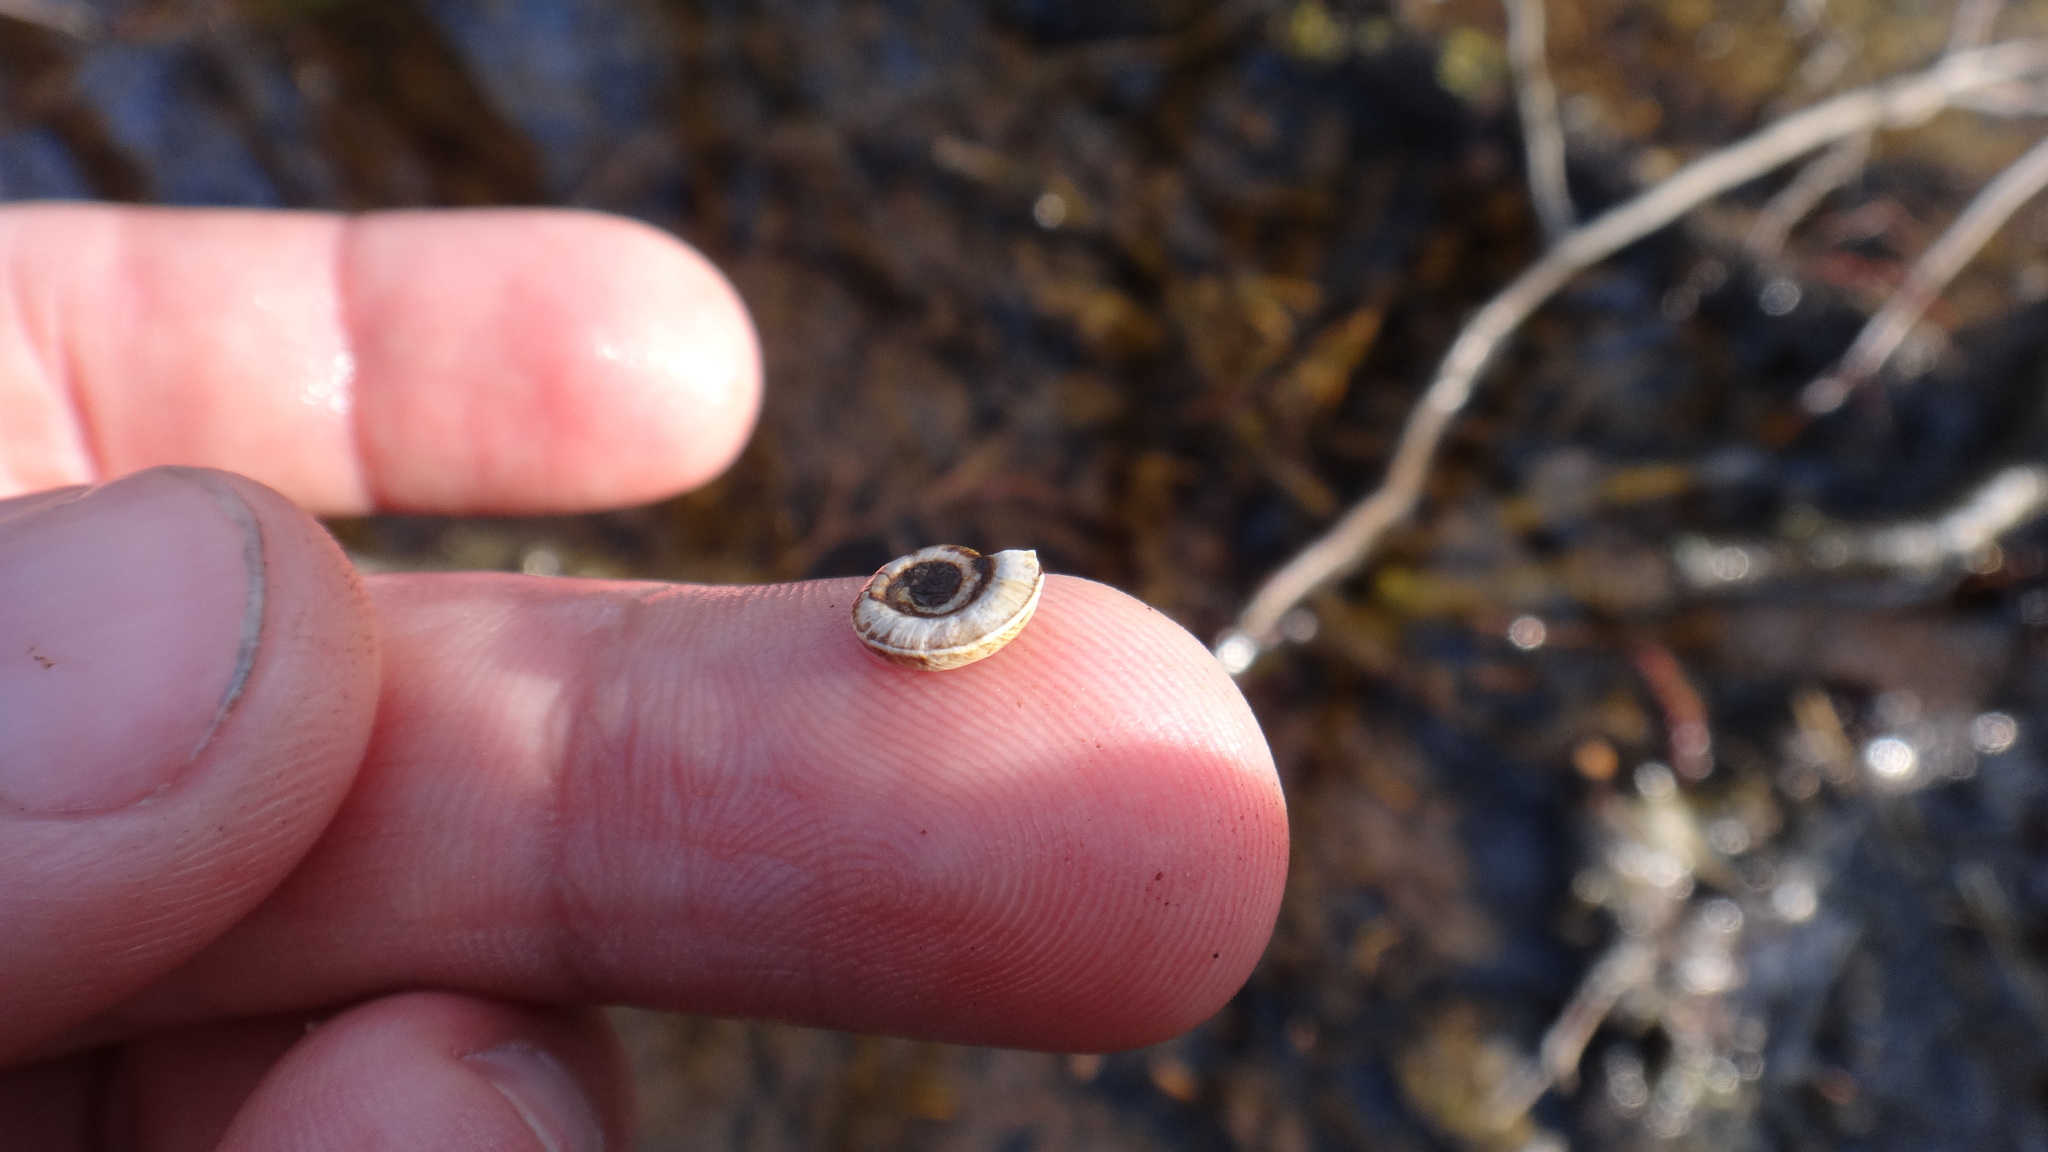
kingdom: Animalia
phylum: Mollusca
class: Gastropoda
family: Planorbidae
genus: Planorbis
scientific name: Planorbis planorbis
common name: Margined ramshorn
